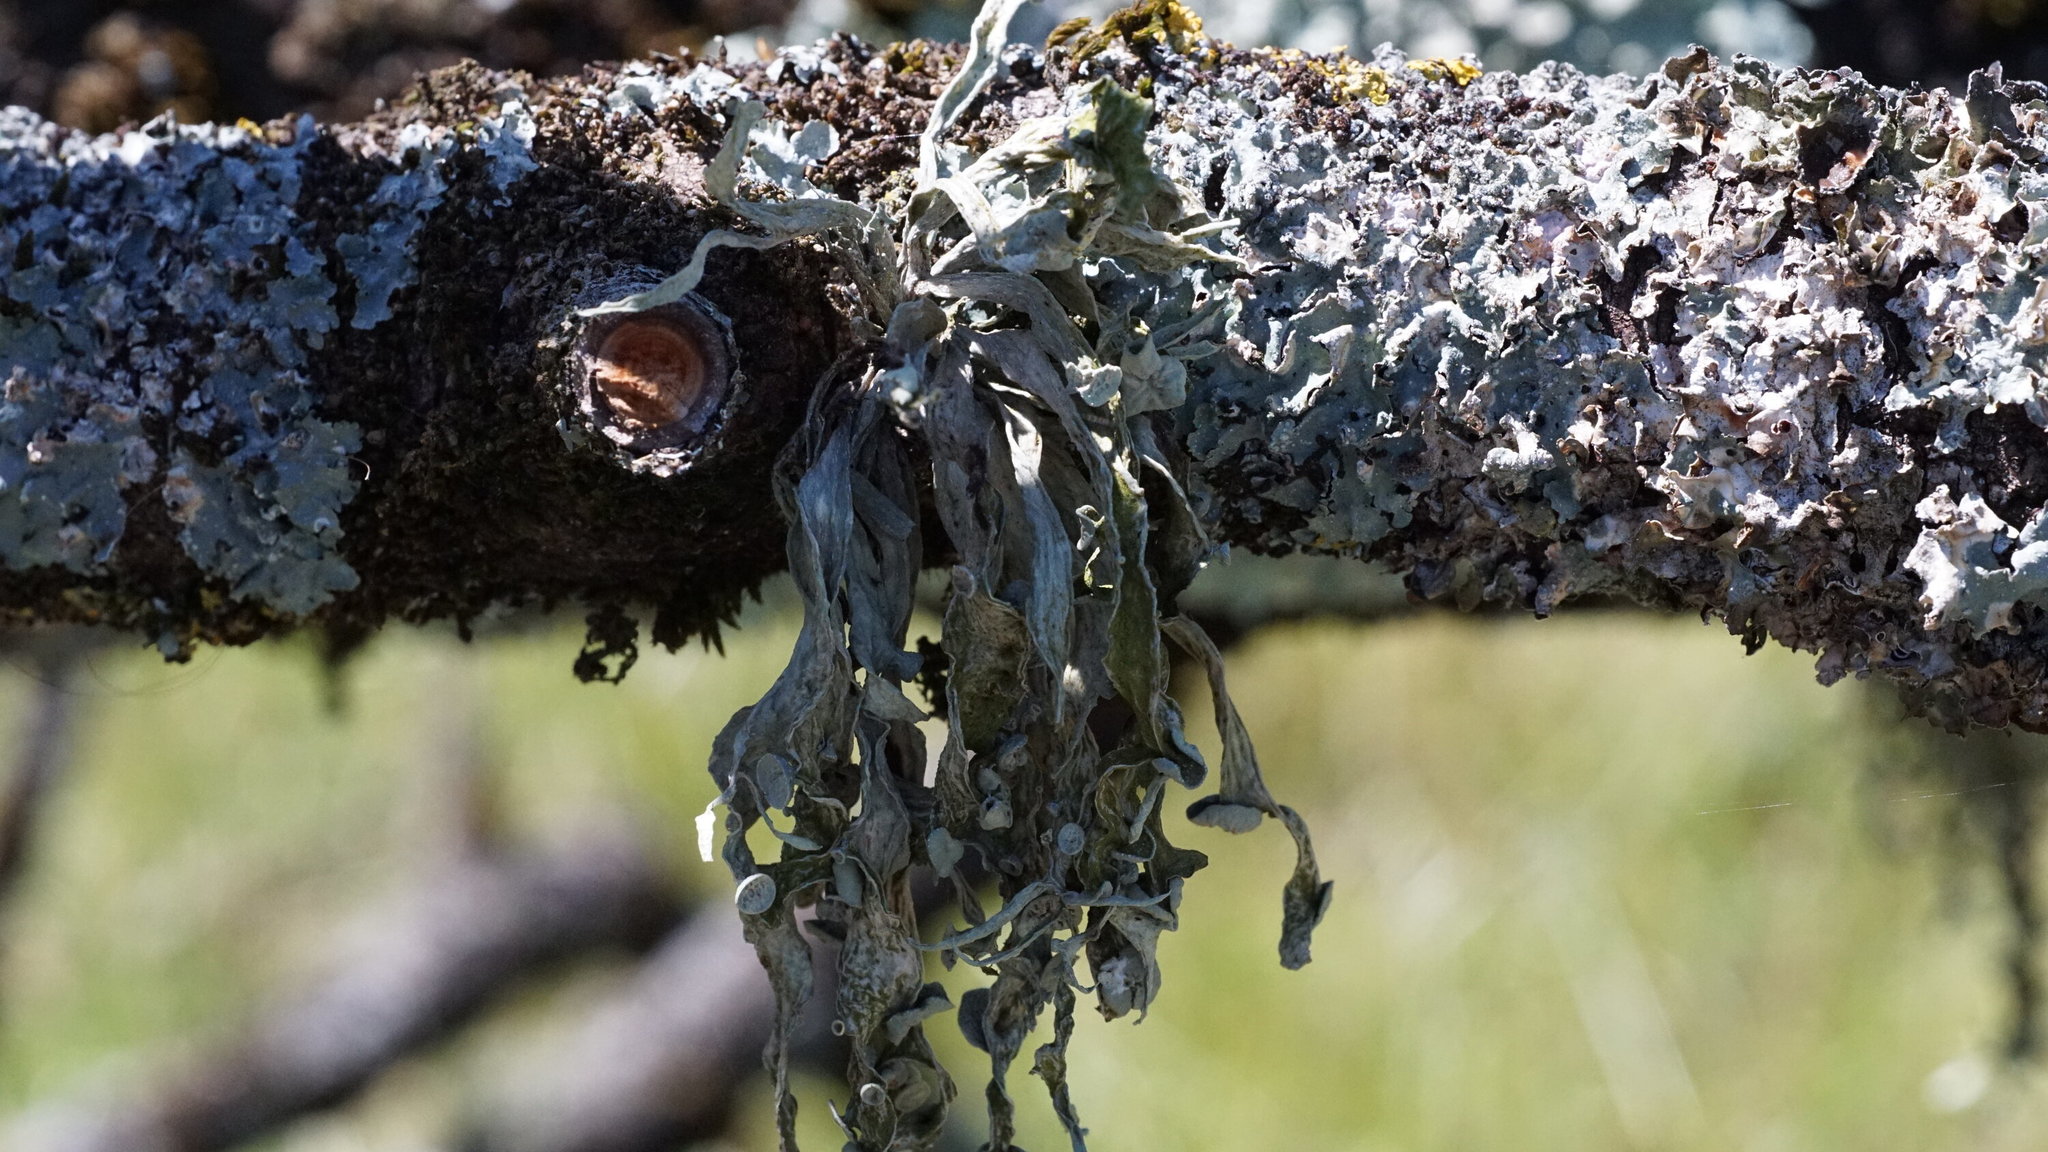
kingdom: Fungi
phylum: Ascomycota
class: Lecanoromycetes
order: Lecanorales
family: Ramalinaceae
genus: Ramalina
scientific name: Ramalina fraxinea
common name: Cartilage lichen
